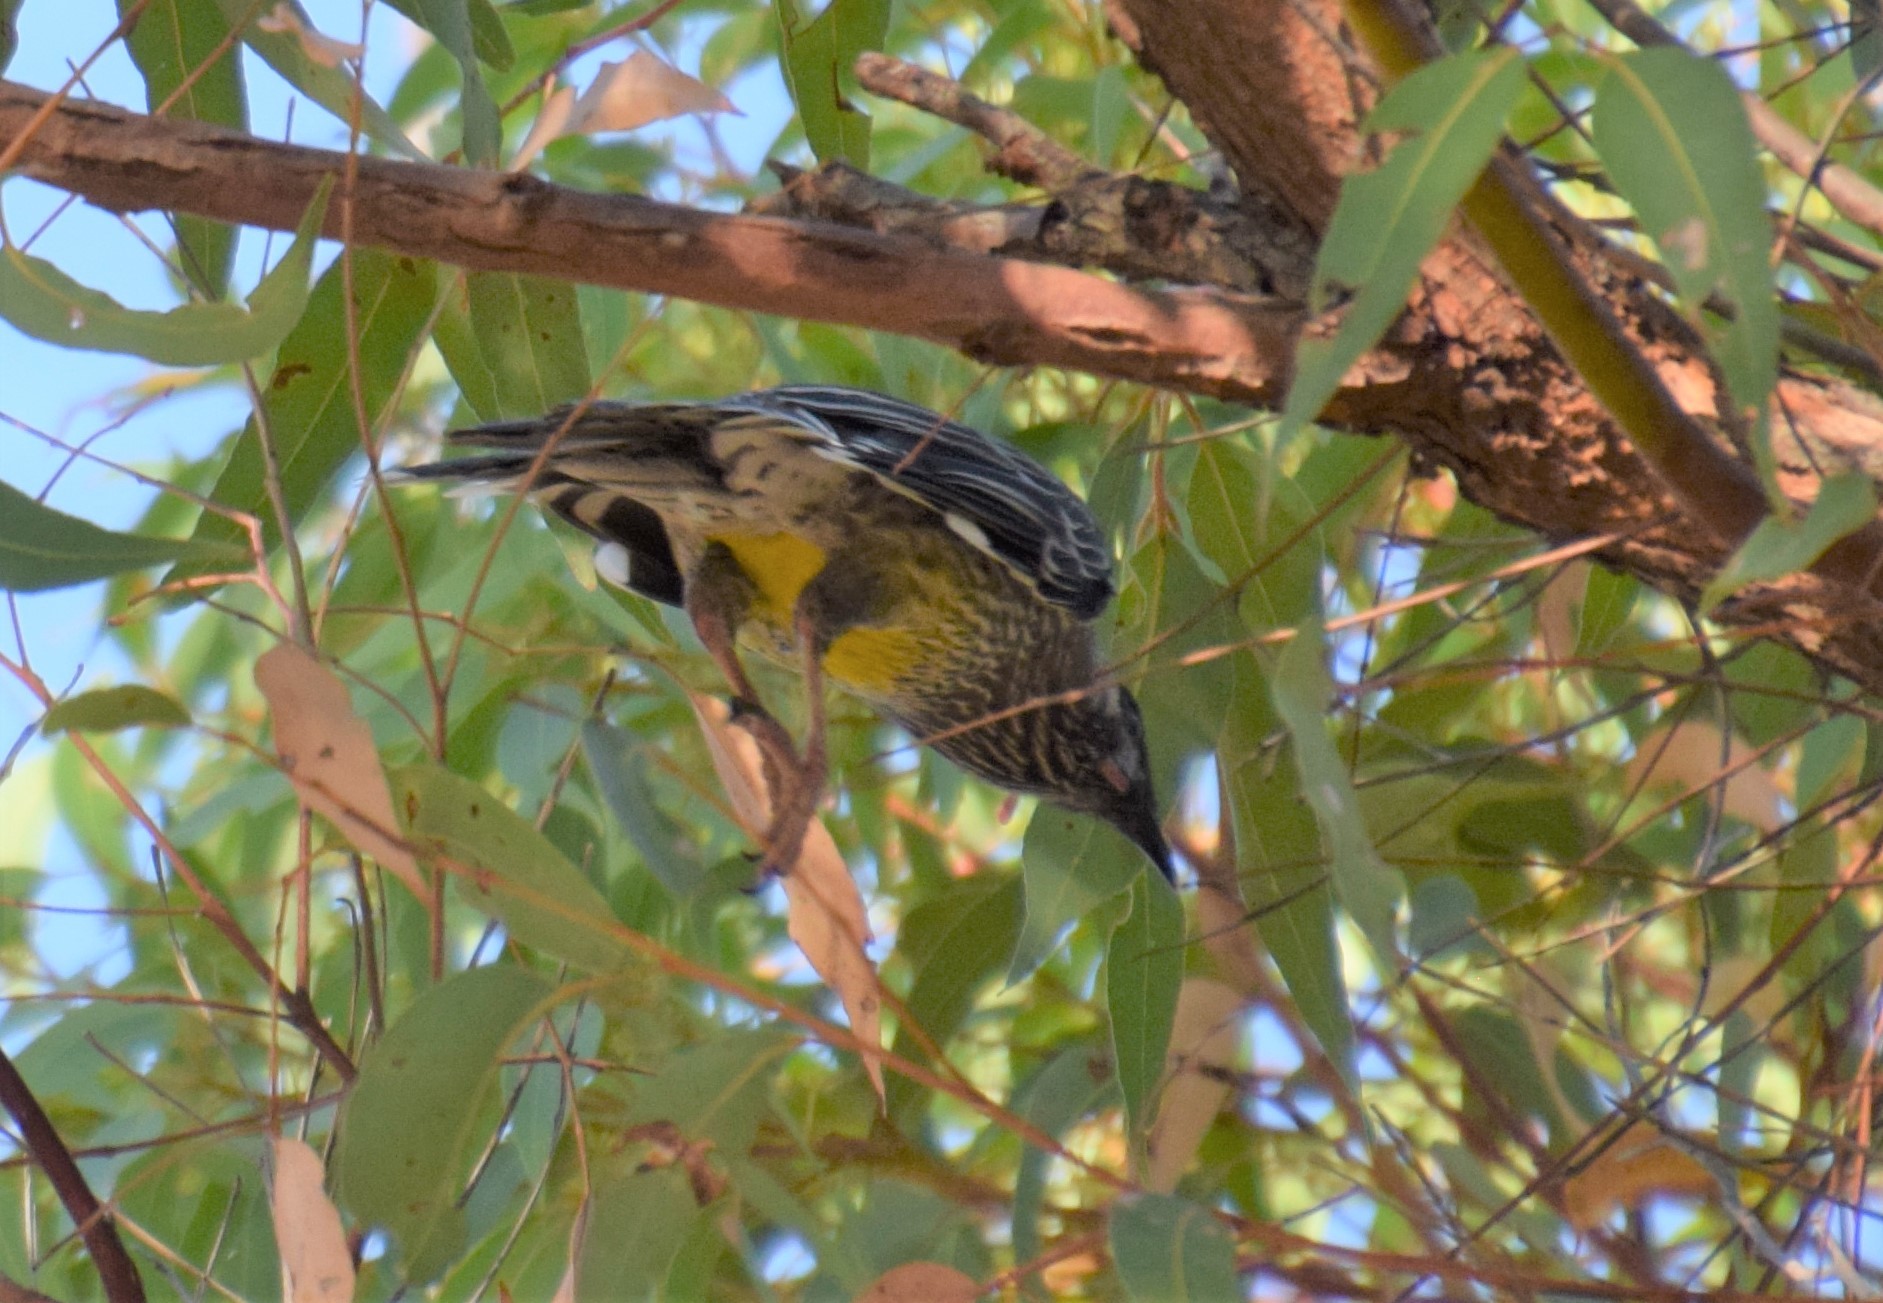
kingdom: Animalia
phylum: Chordata
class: Aves
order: Passeriformes
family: Meliphagidae
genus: Anthochaera
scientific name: Anthochaera carunculata
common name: Red wattlebird
